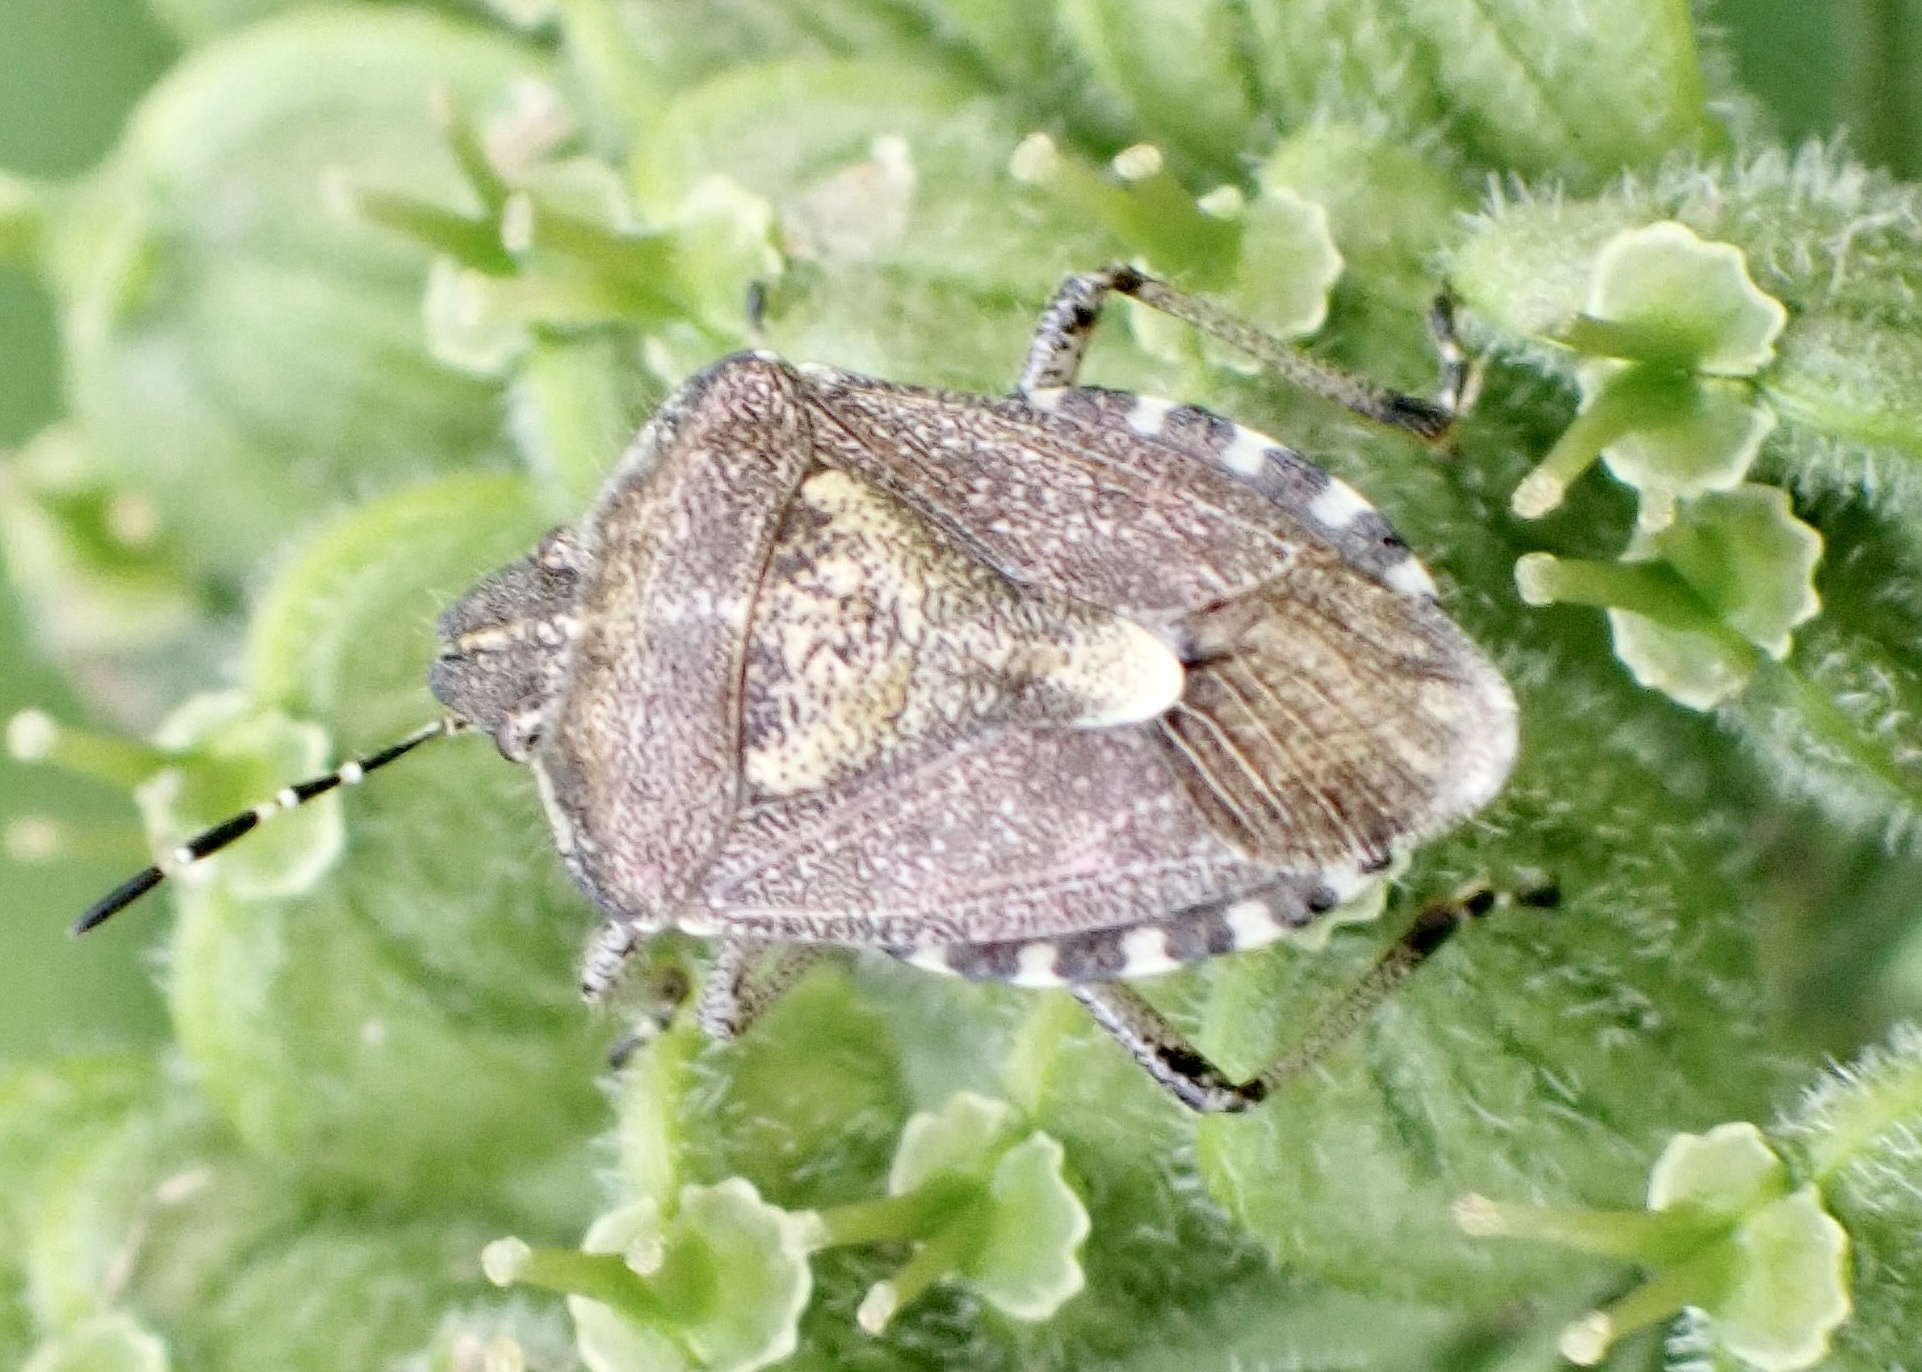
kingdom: Animalia
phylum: Arthropoda
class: Insecta
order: Hemiptera
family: Pentatomidae
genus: Dolycoris
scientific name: Dolycoris baccarum
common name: Sloe bug
